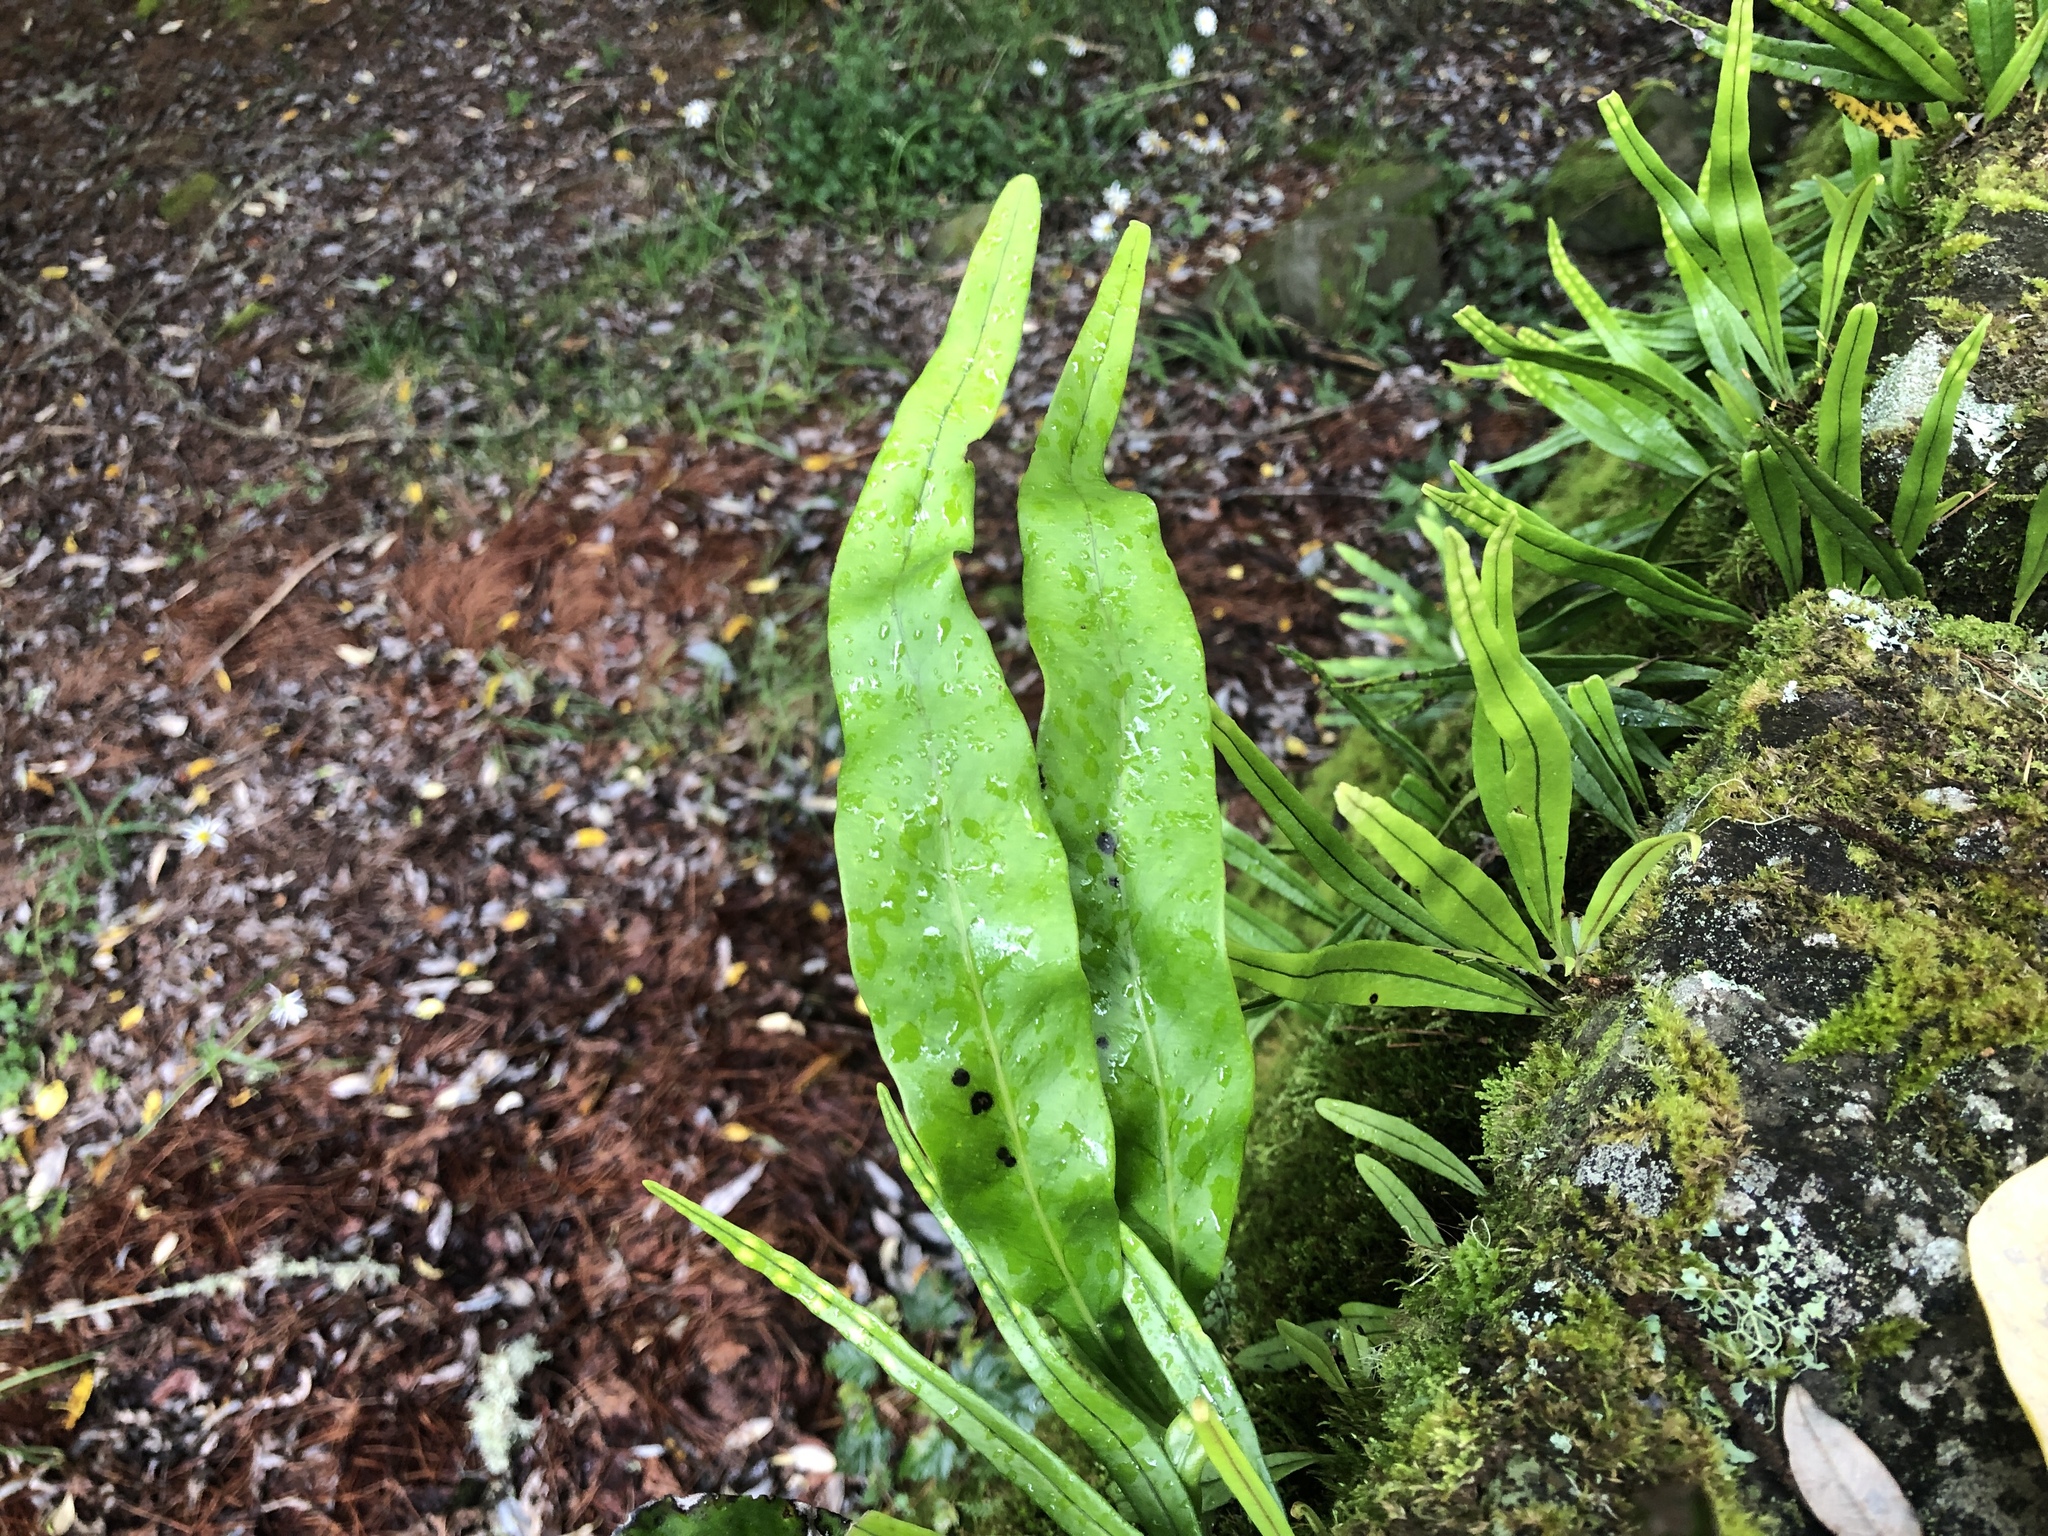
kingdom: Plantae
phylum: Tracheophyta
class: Polypodiopsida
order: Polypodiales
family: Polypodiaceae
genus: Lepisorus
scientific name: Lepisorus morrisonensis
